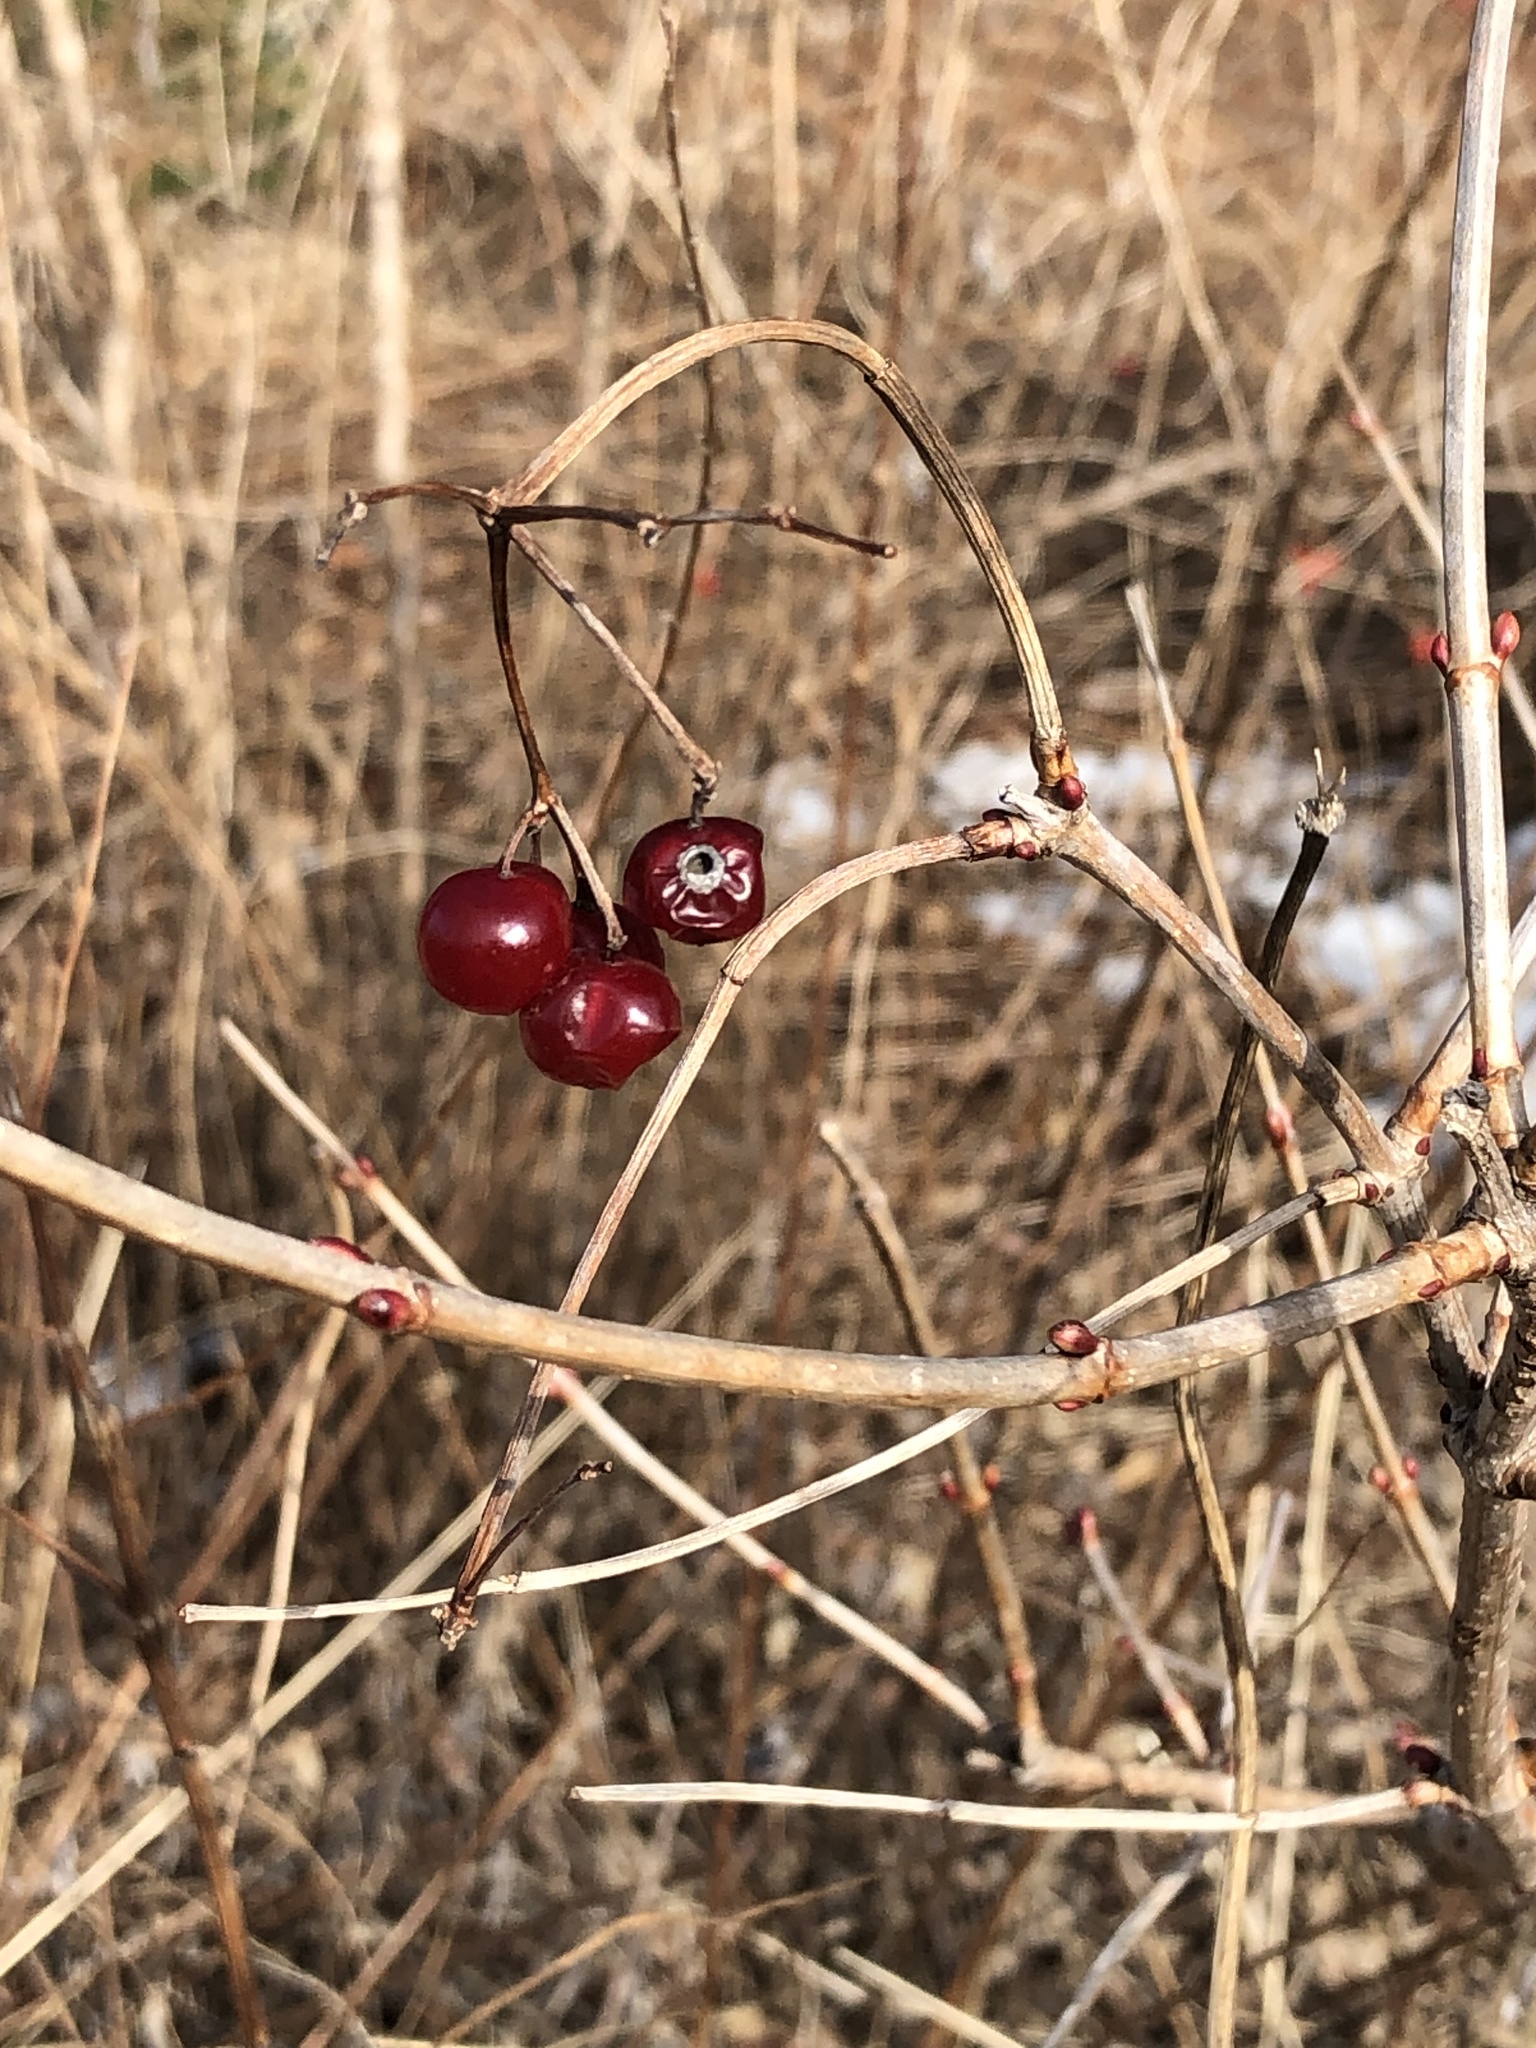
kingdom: Plantae
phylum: Tracheophyta
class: Magnoliopsida
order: Dipsacales
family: Viburnaceae
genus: Viburnum
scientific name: Viburnum opulus
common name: Guelder-rose
